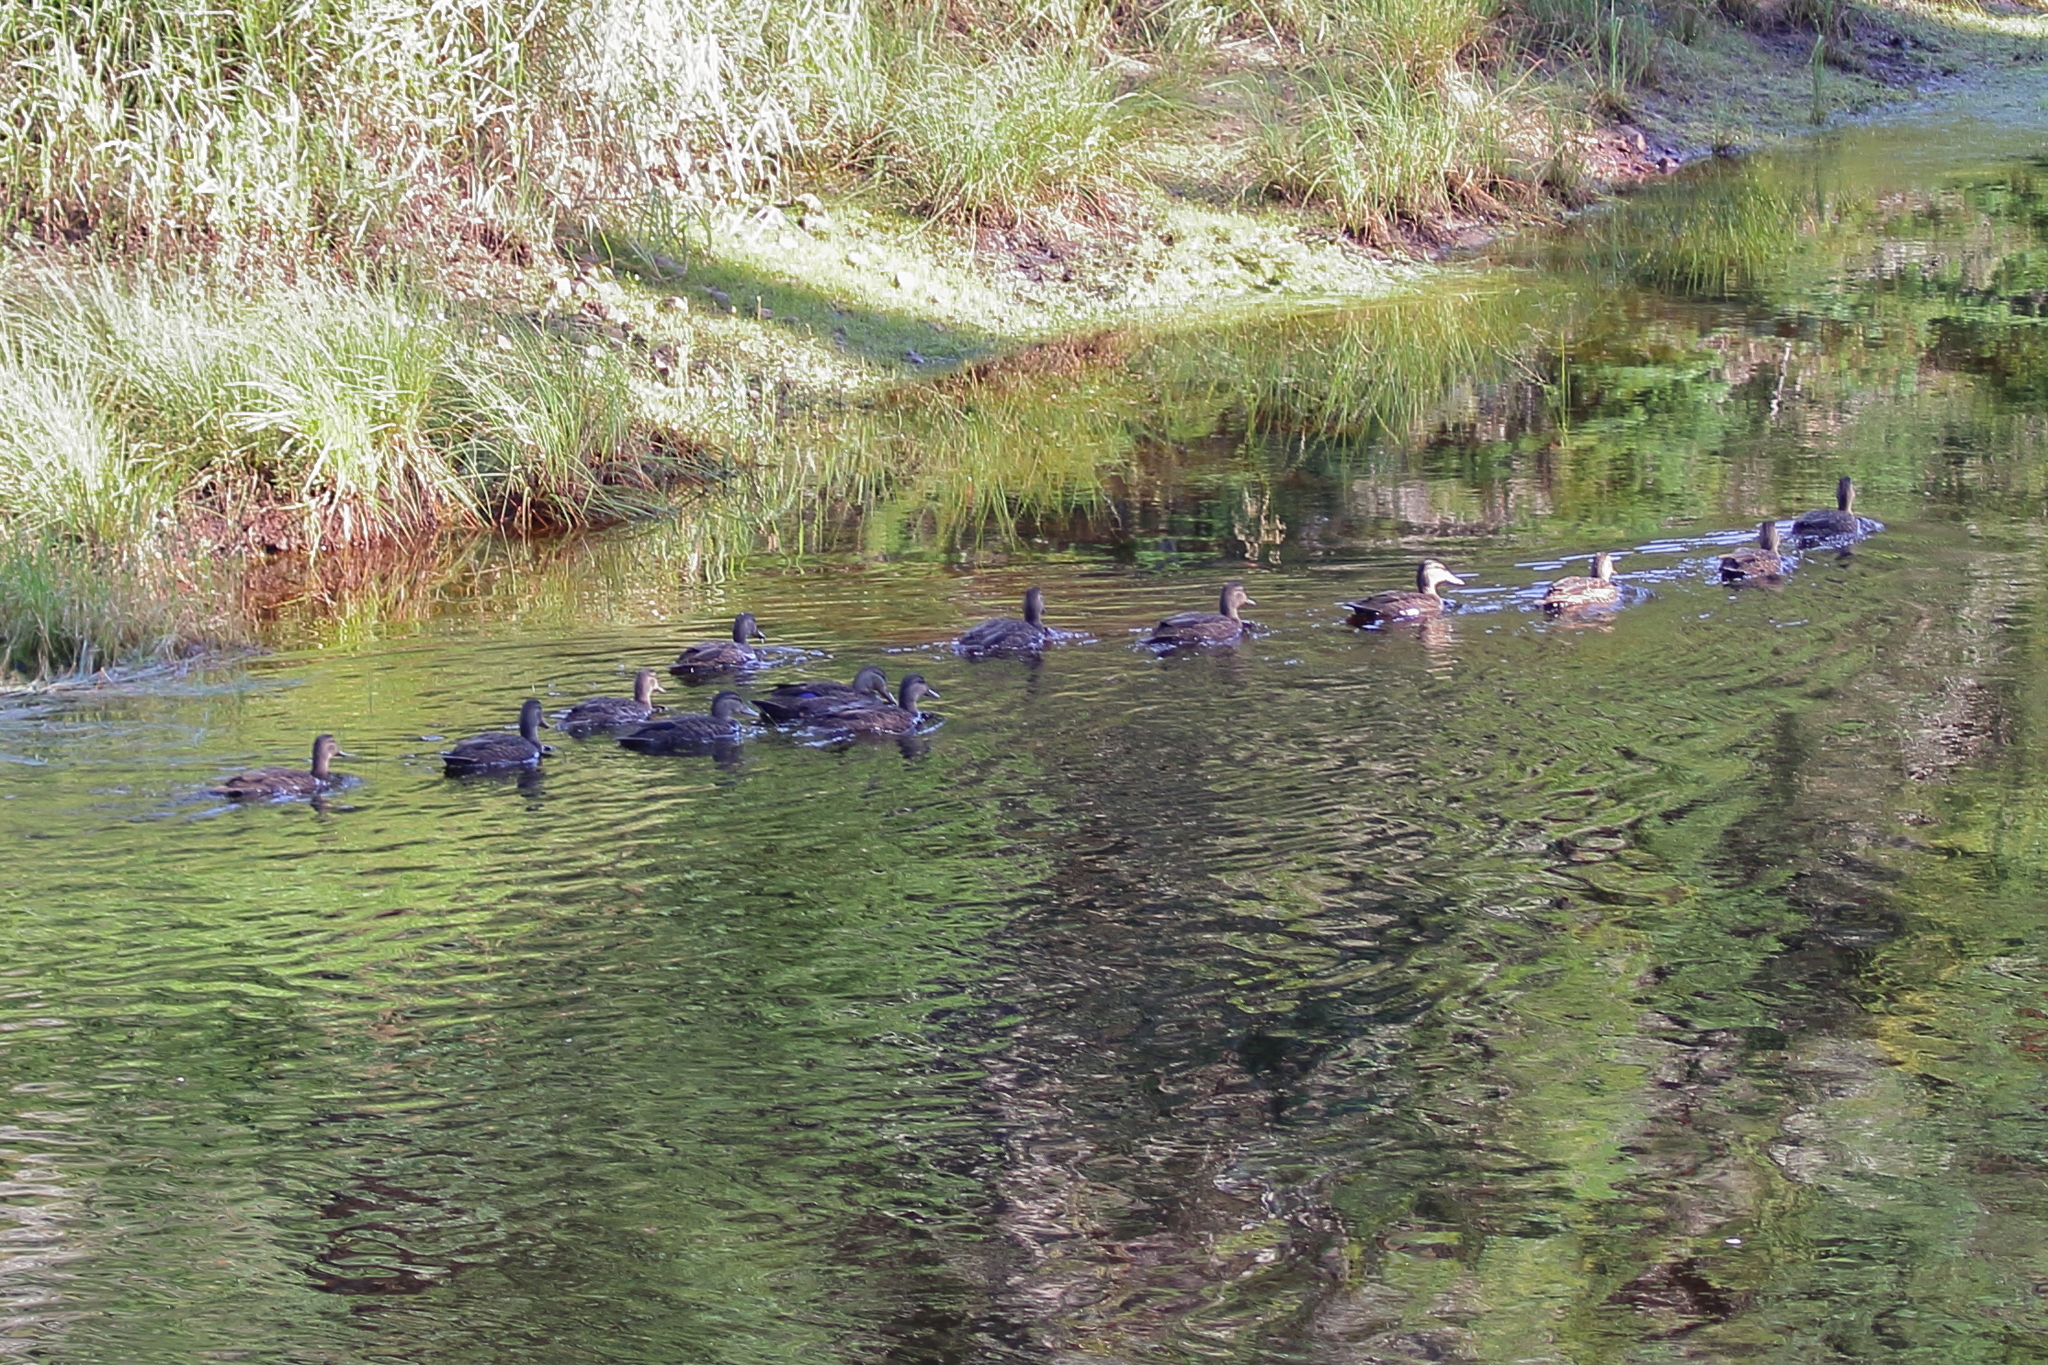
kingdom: Animalia
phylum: Chordata
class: Aves
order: Anseriformes
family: Anatidae
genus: Anas
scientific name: Anas rubripes
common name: American black duck
